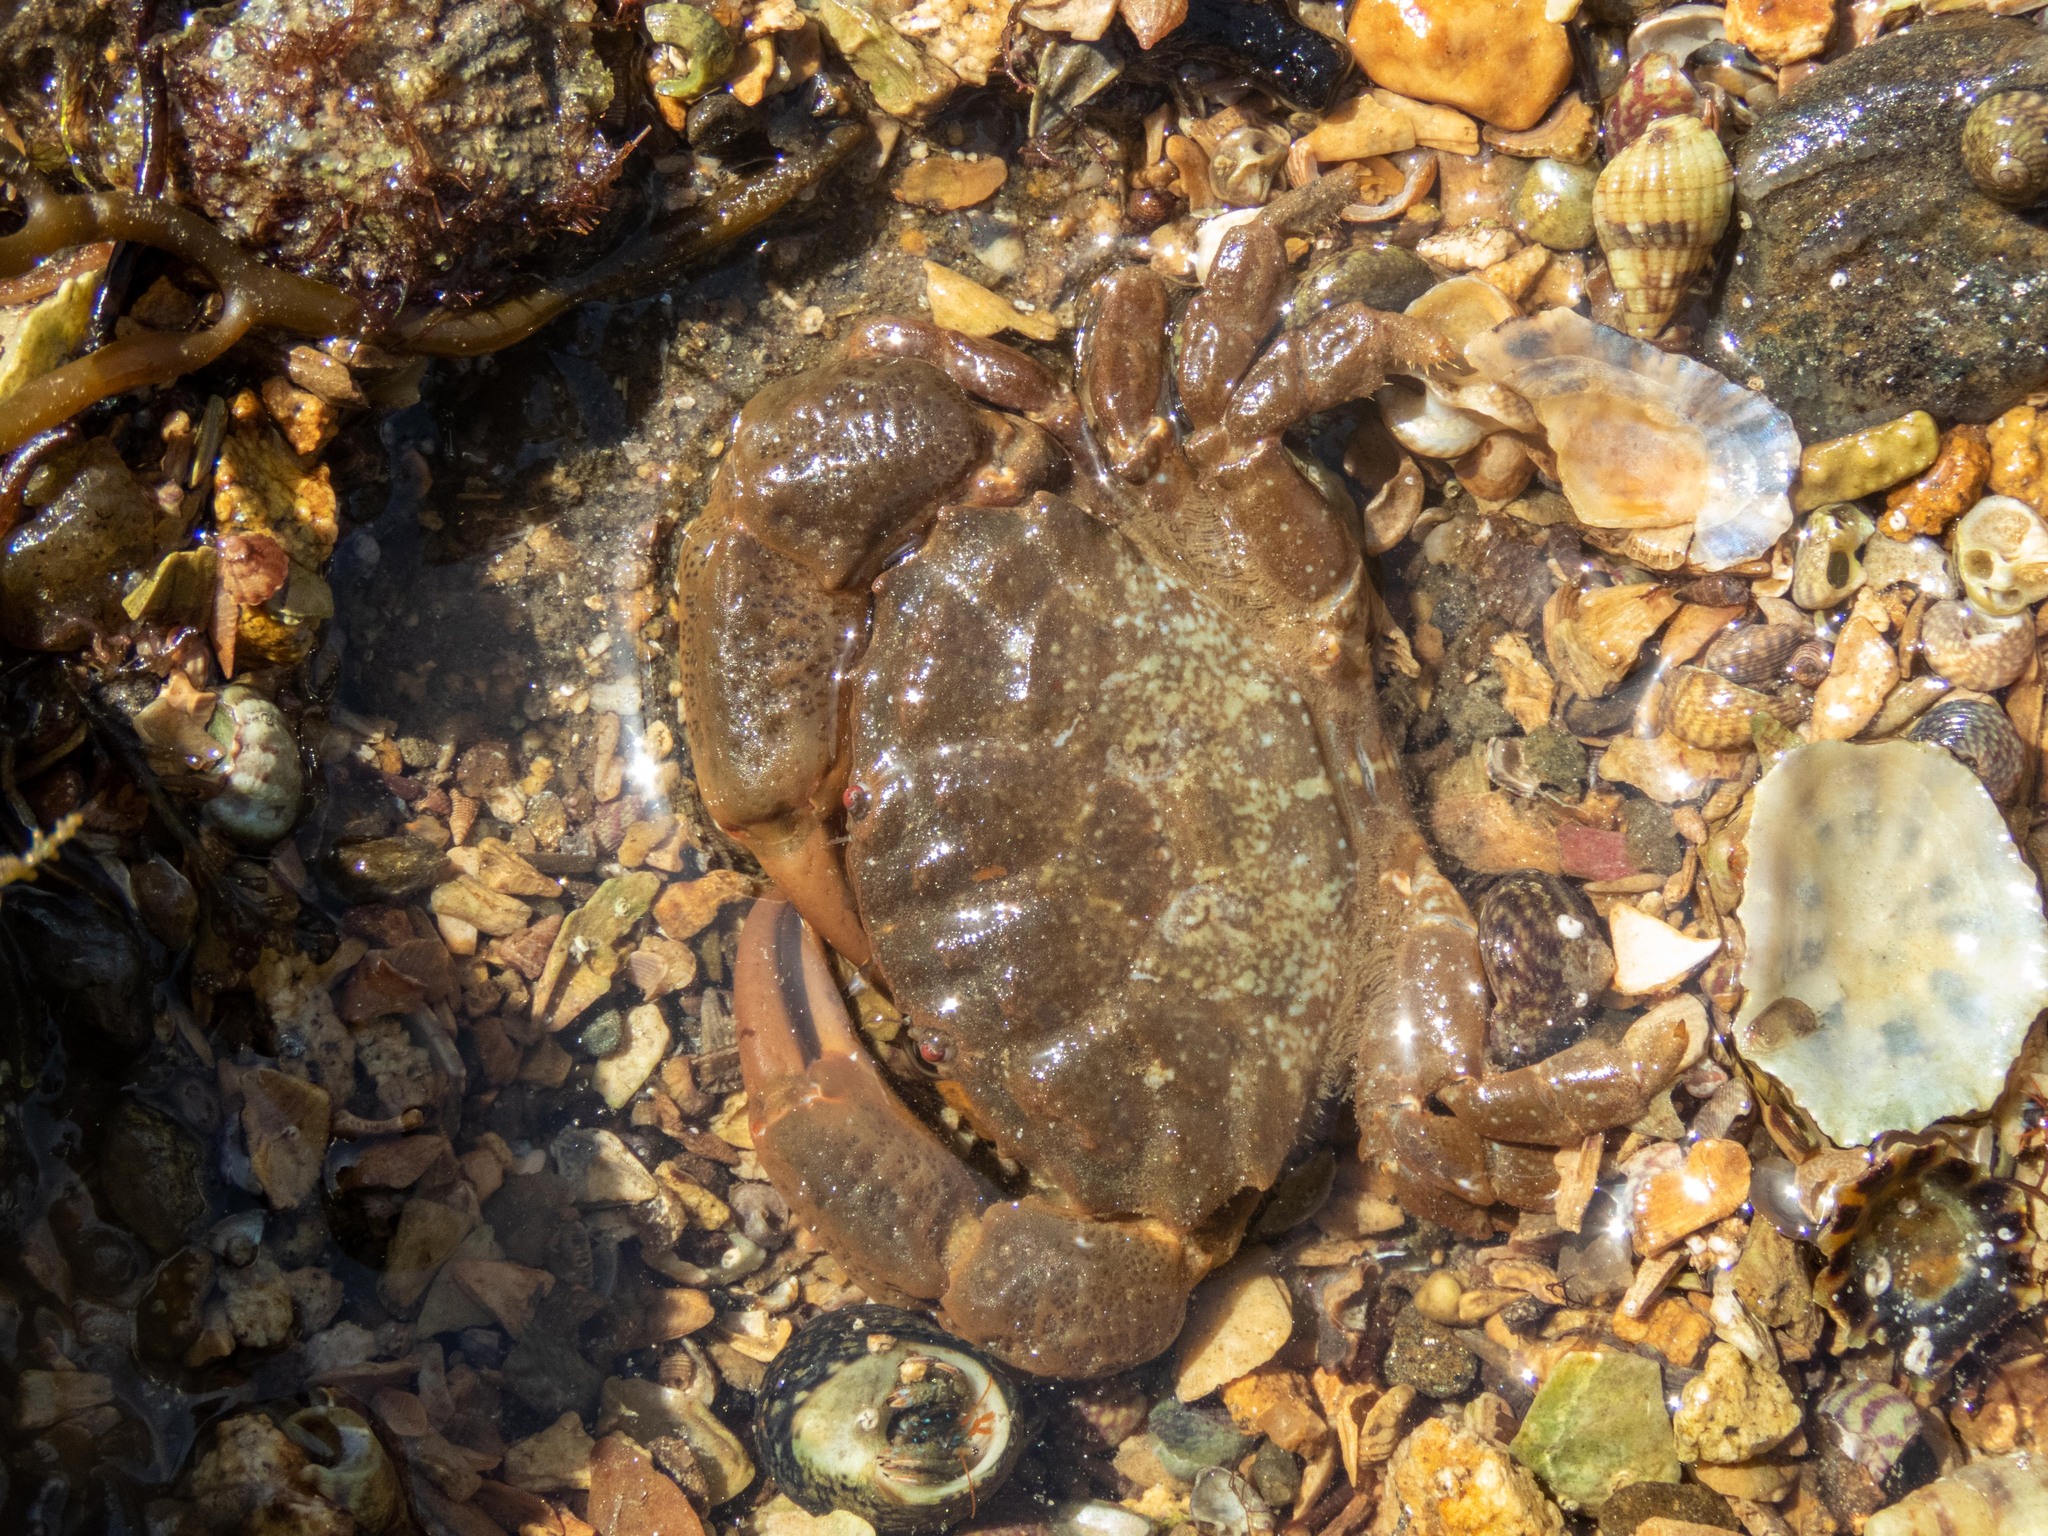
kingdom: Animalia
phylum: Arthropoda
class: Malacostraca
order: Decapoda
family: Xanthidae
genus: Xantho
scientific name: Xantho hydrophilus
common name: Montagu's crab
